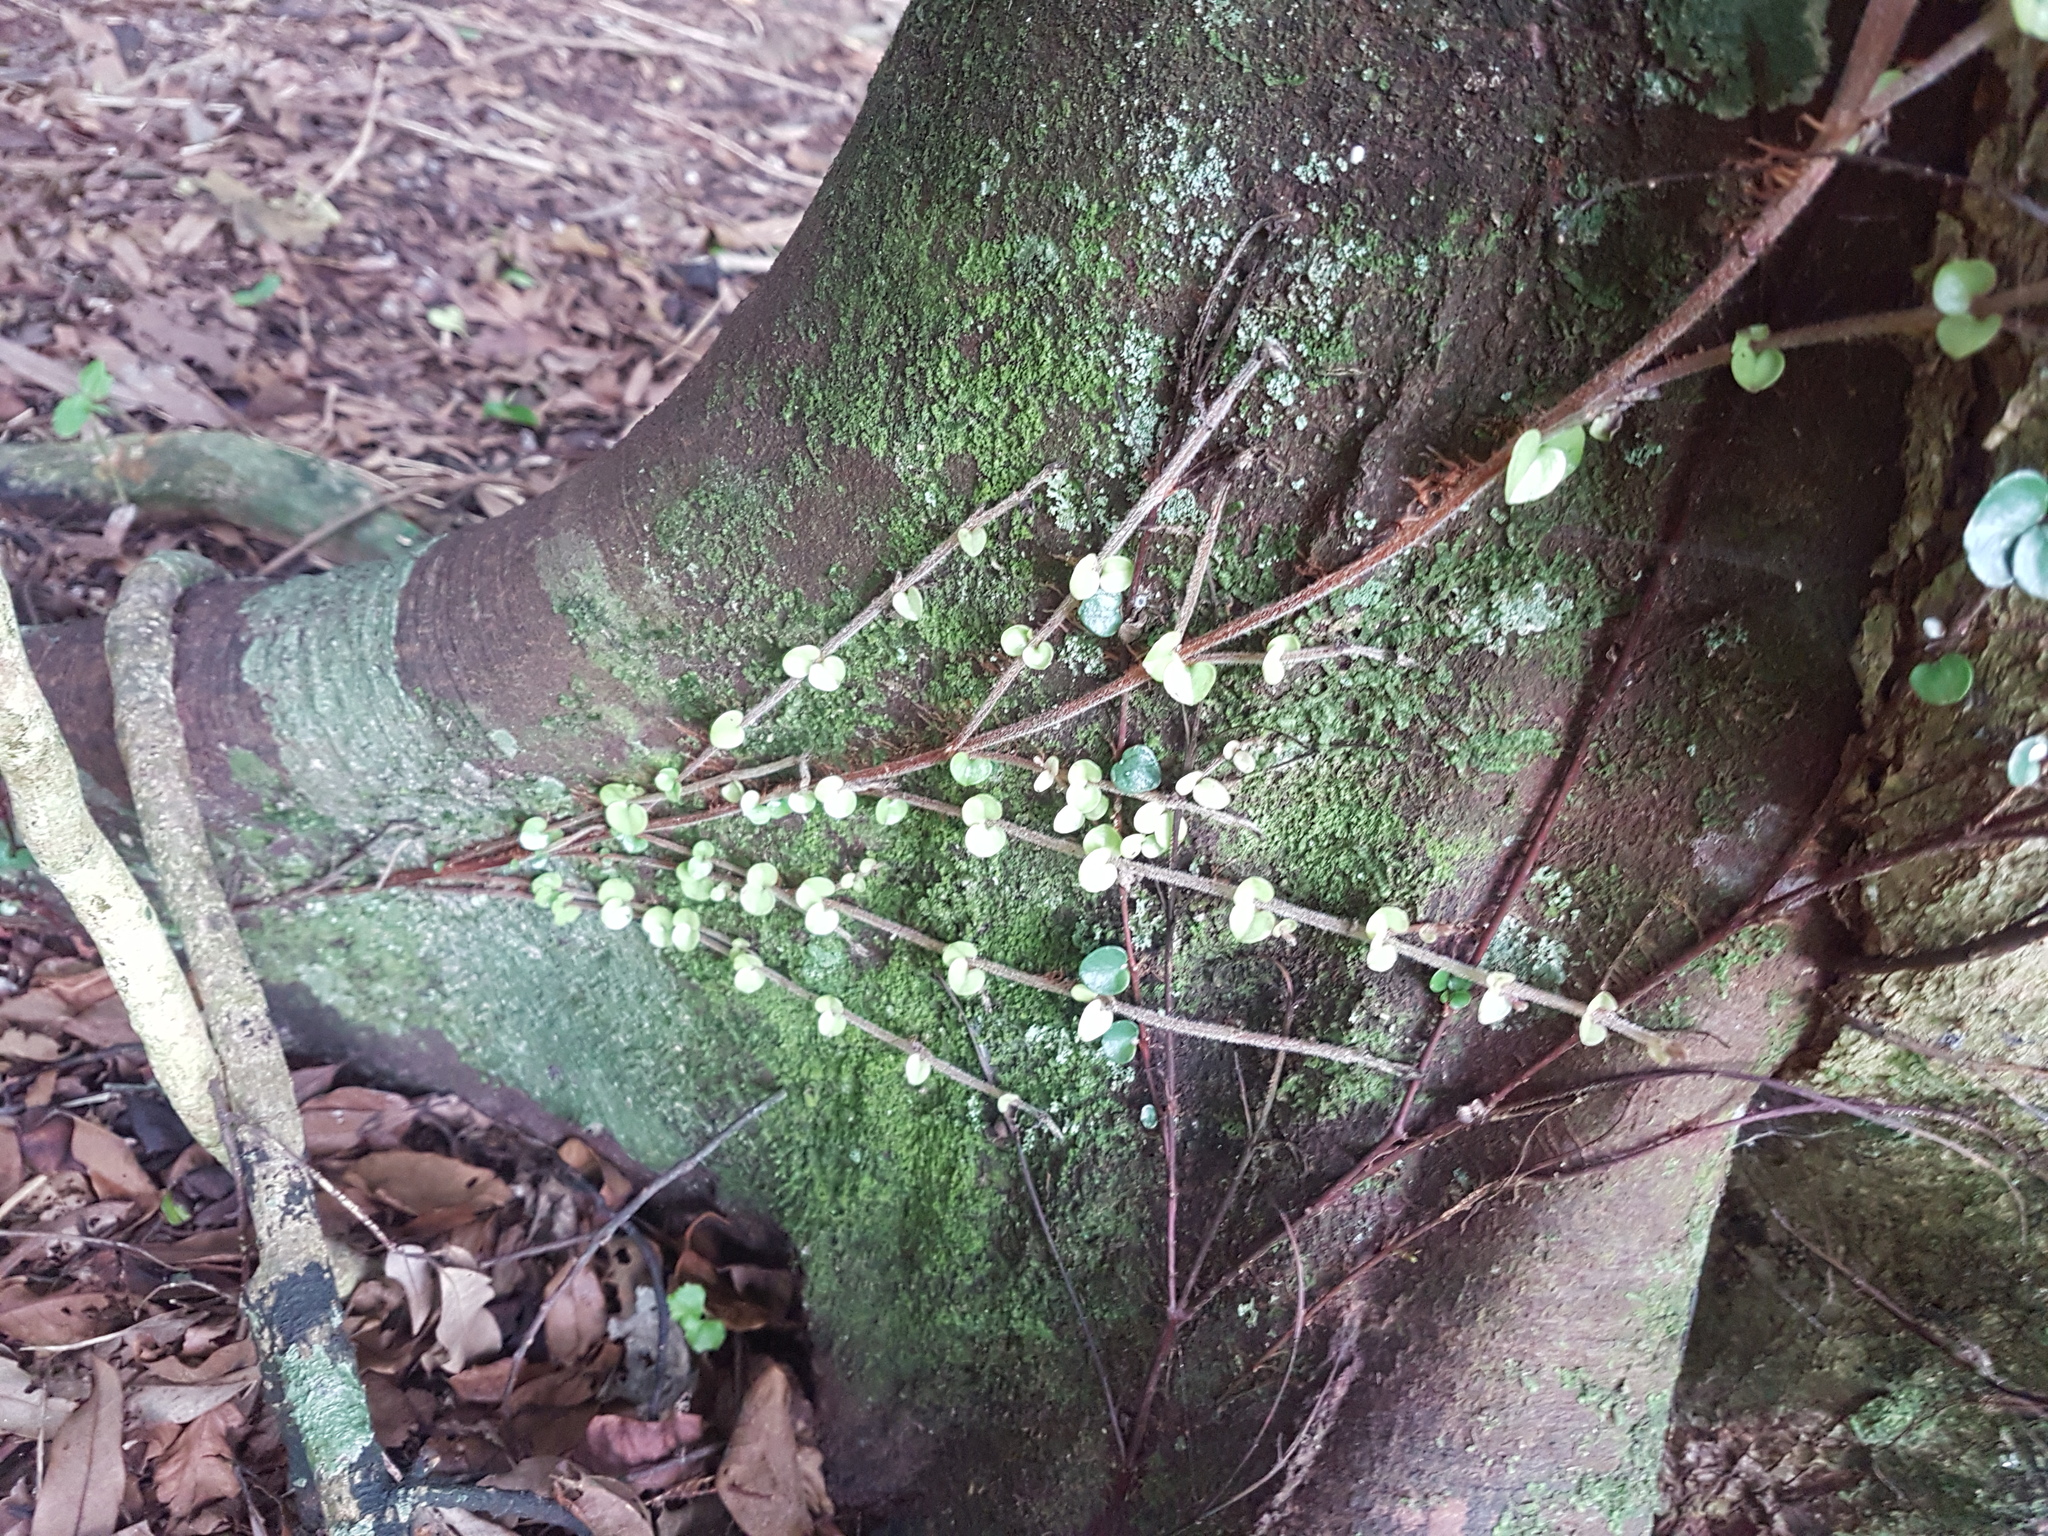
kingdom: Plantae
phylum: Tracheophyta
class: Magnoliopsida
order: Myrtales
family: Myrtaceae
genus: Metrosideros
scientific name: Metrosideros perforata
